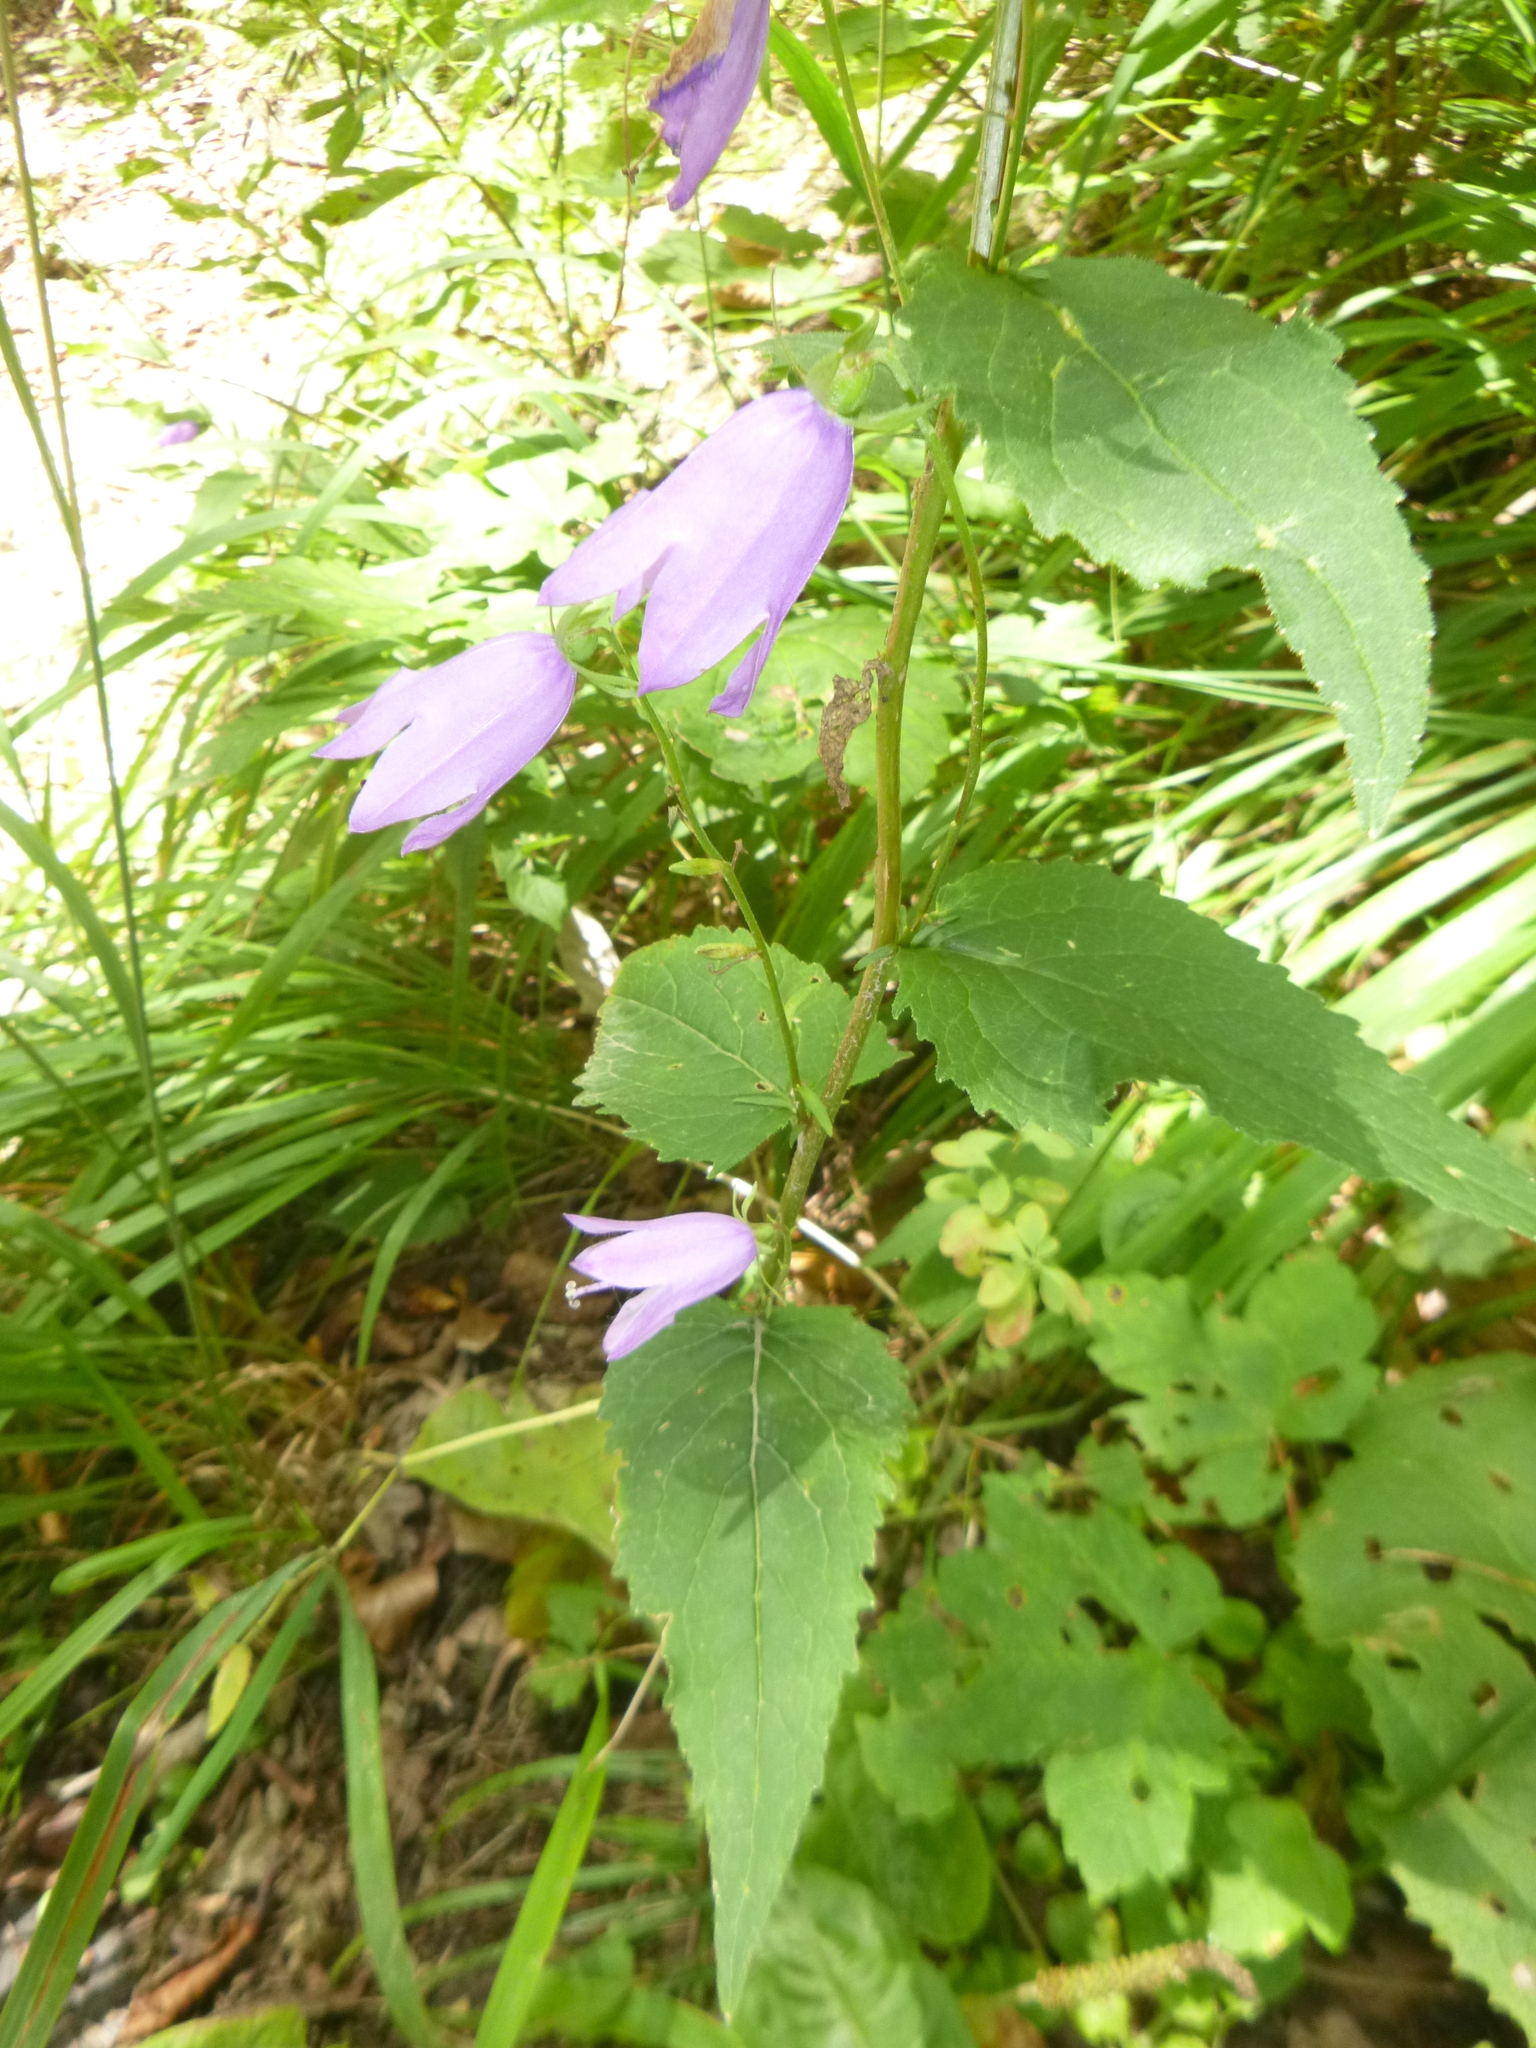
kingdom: Plantae
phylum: Tracheophyta
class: Magnoliopsida
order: Asterales
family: Campanulaceae
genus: Campanula
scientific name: Campanula trachelium
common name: Nettle-leaved bellflower
